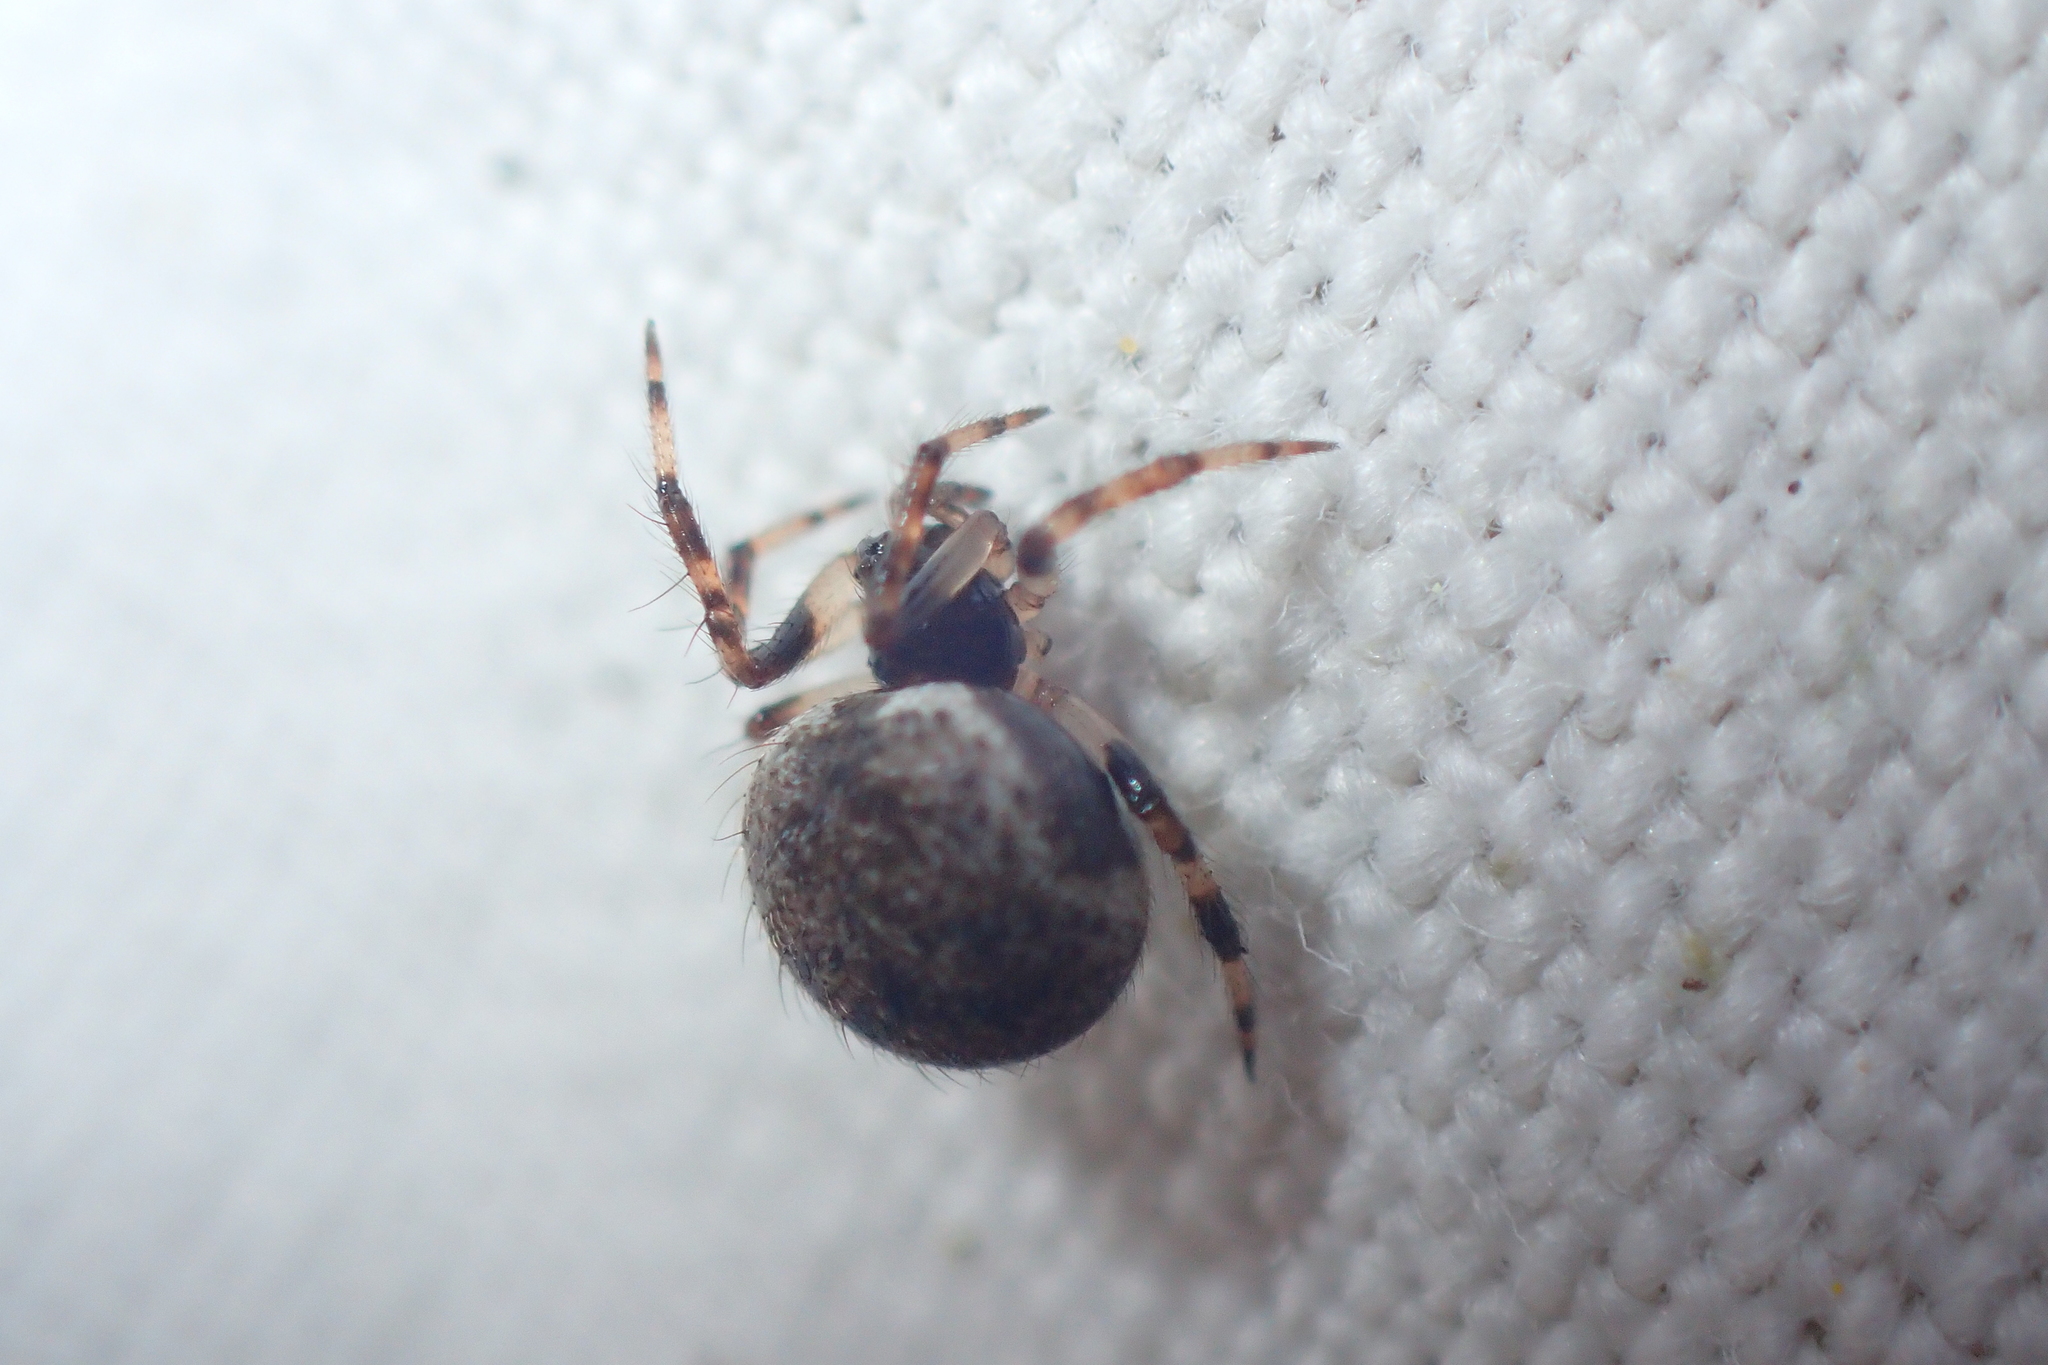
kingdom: Animalia
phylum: Arthropoda
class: Arachnida
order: Araneae
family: Theridiidae
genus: Dipoena
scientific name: Dipoena melanogaster
